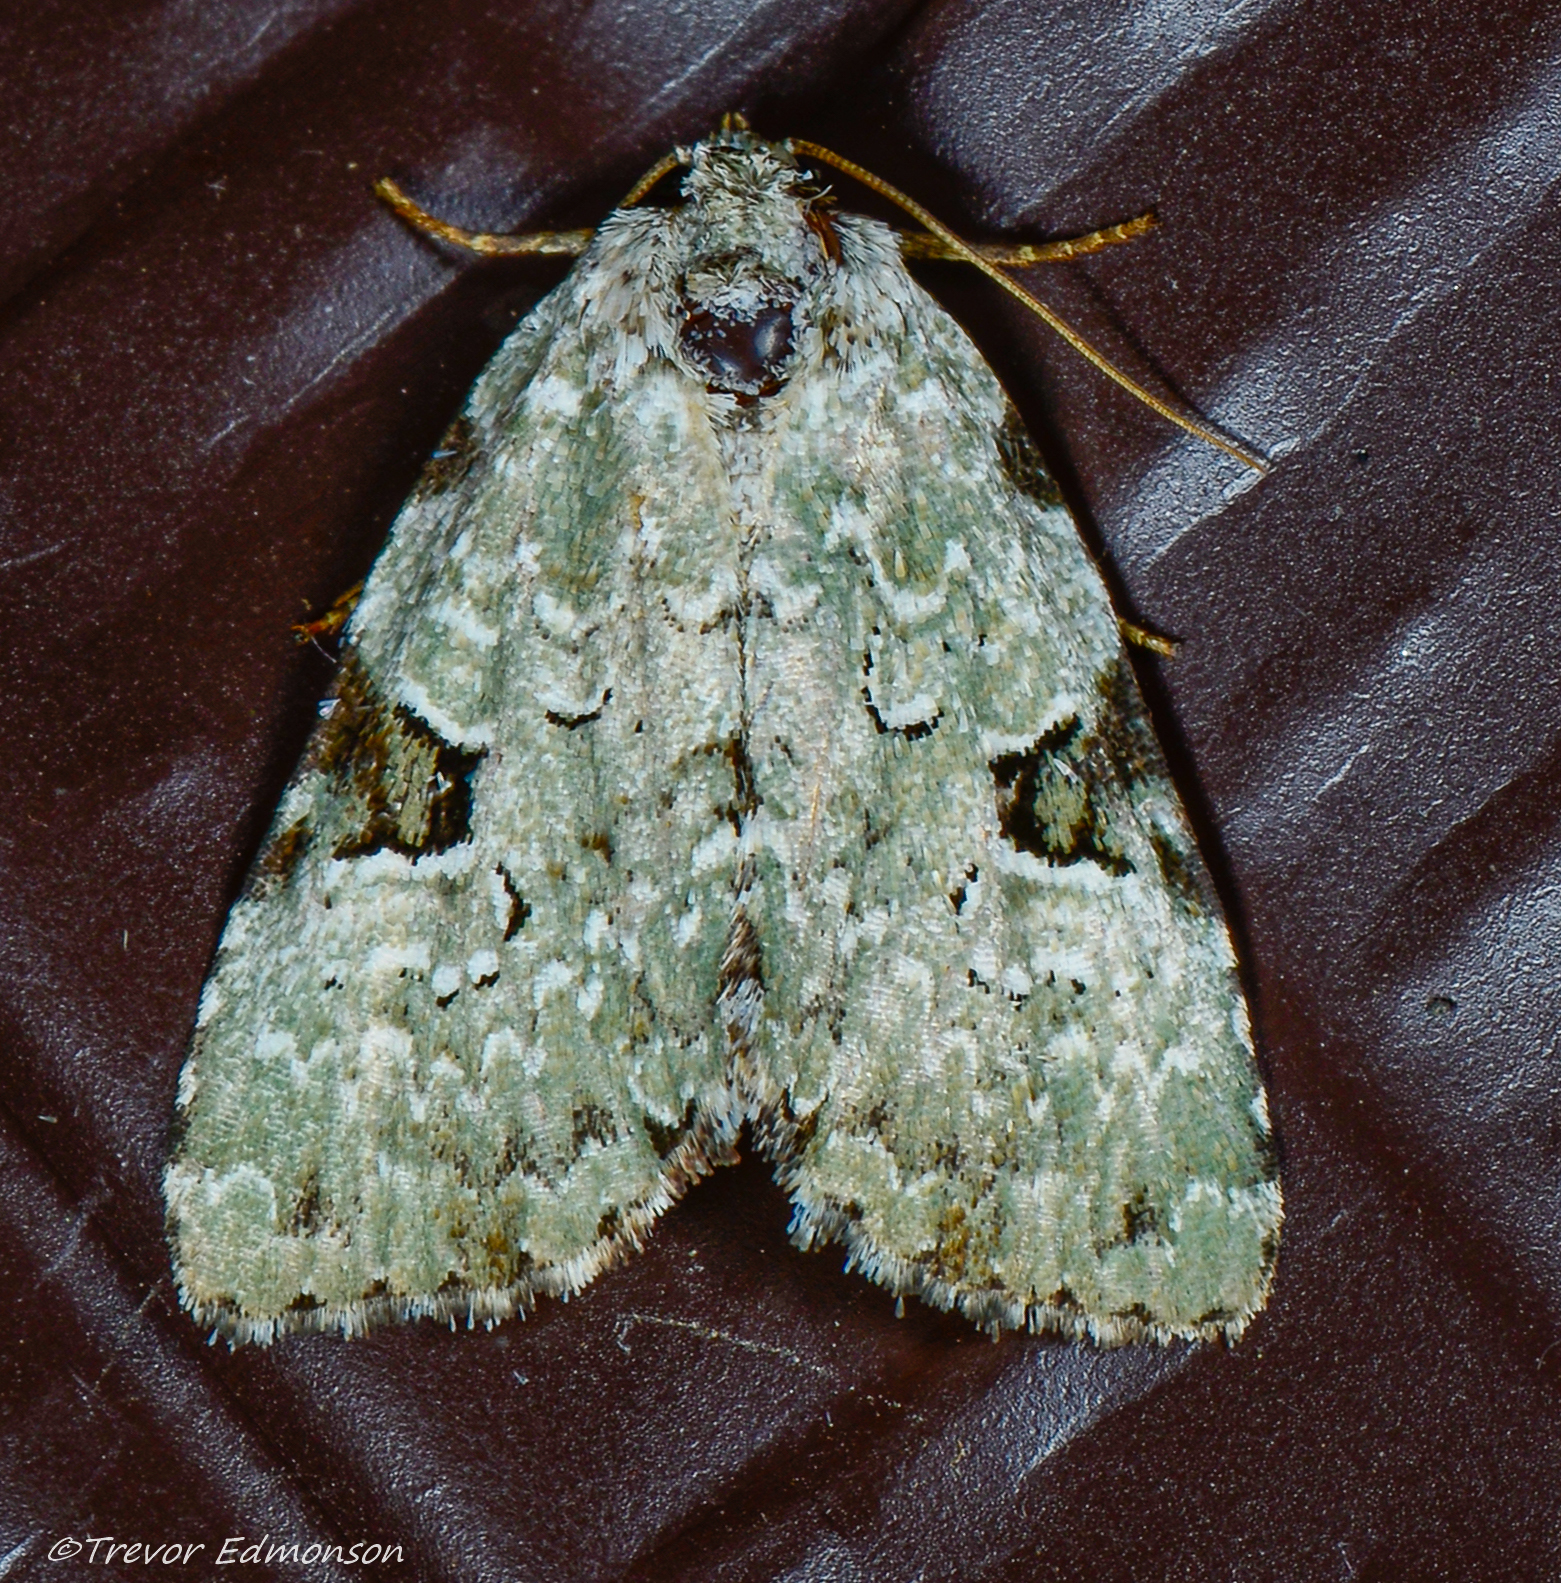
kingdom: Animalia
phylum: Arthropoda
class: Insecta
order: Lepidoptera
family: Noctuidae
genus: Leuconycta
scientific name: Leuconycta diphteroides
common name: Green leuconycta moth
